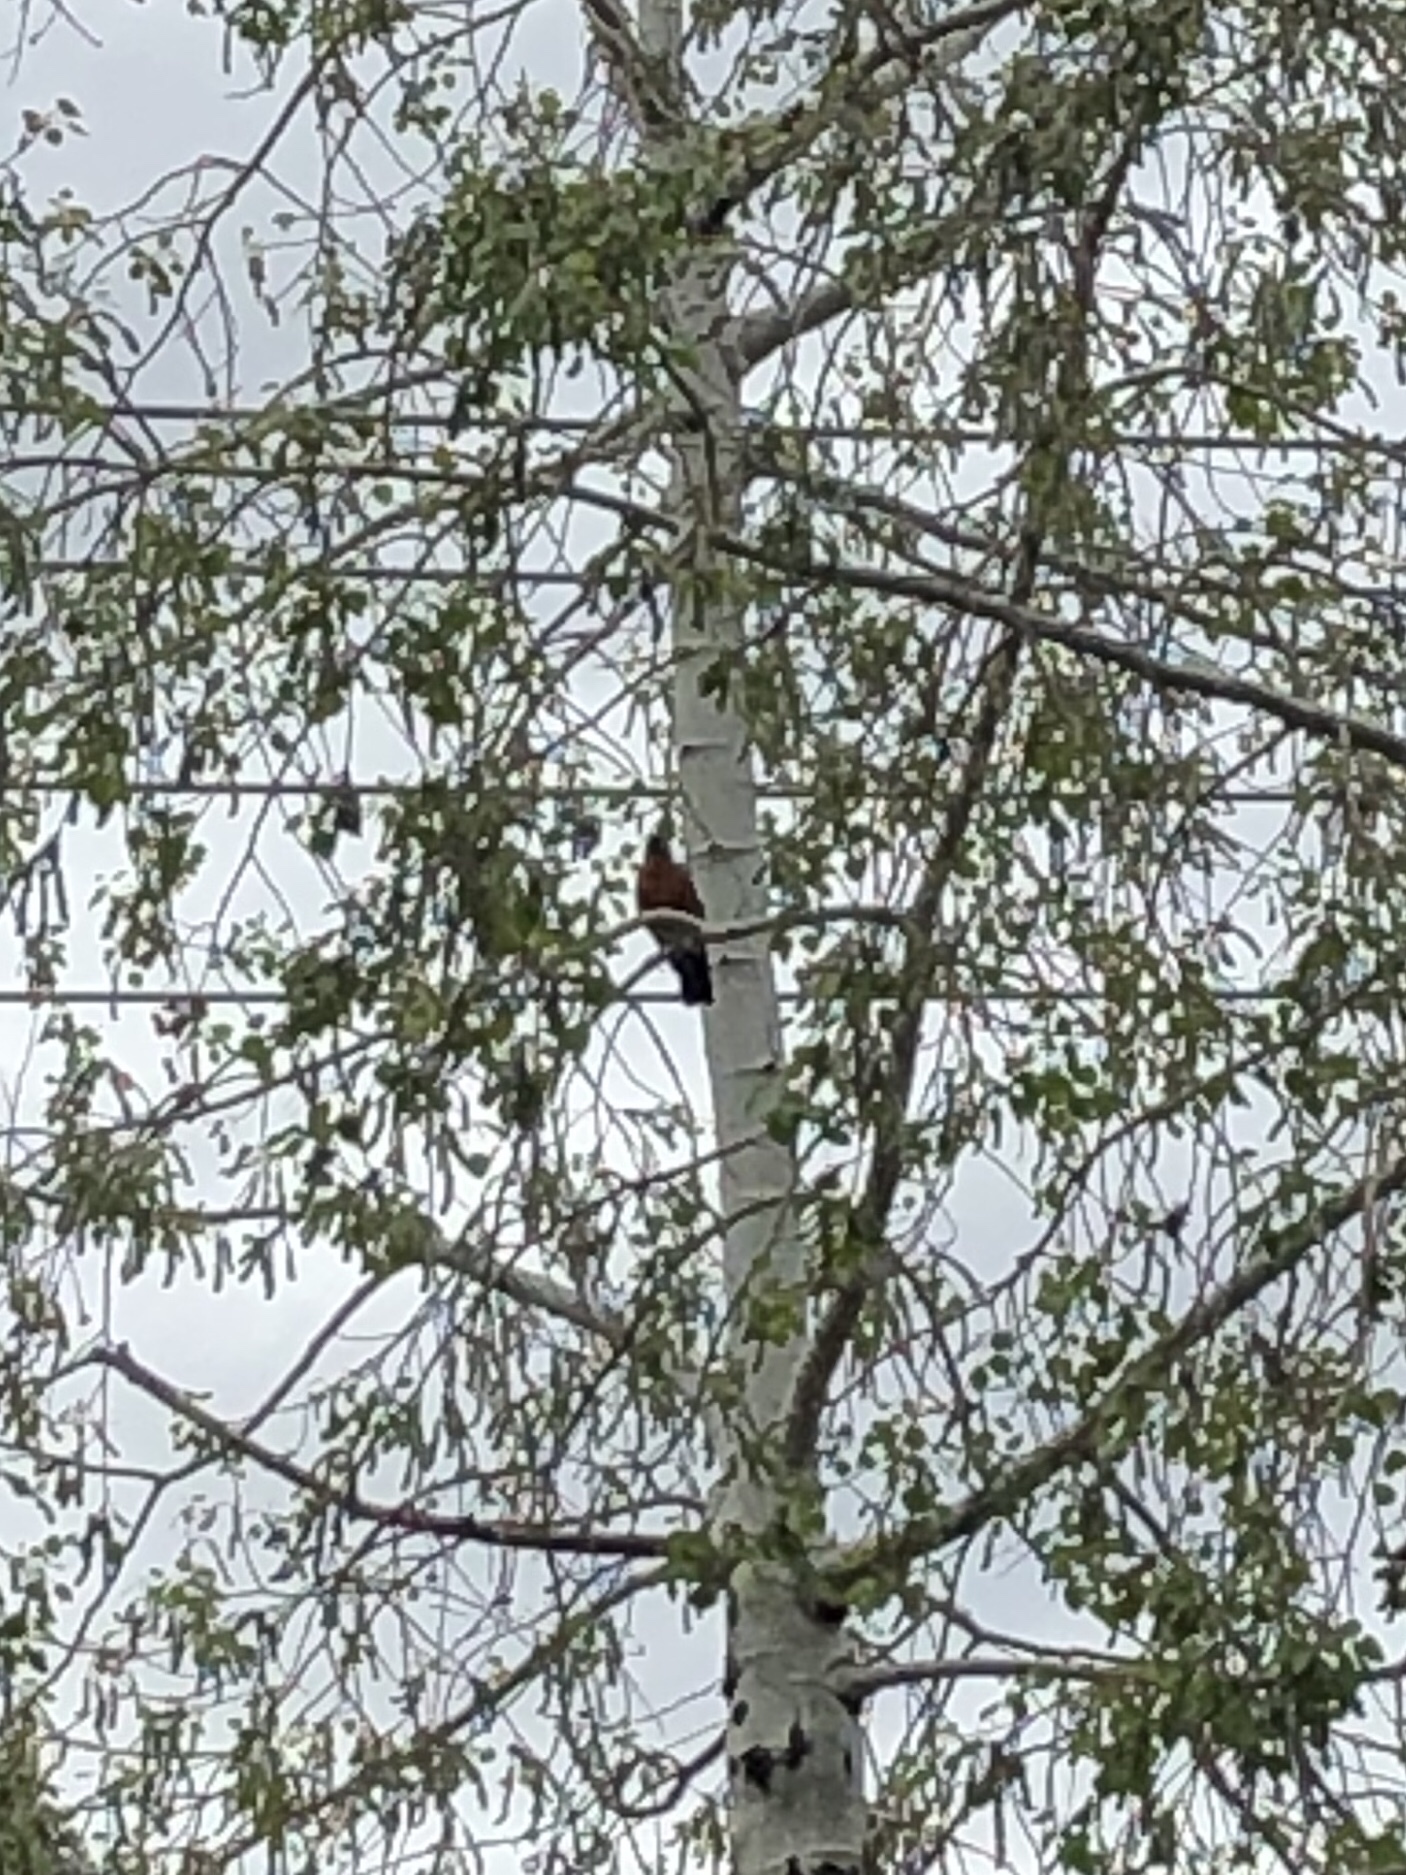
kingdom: Animalia
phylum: Chordata
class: Aves
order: Passeriformes
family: Turdidae
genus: Turdus
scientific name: Turdus migratorius
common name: American robin
